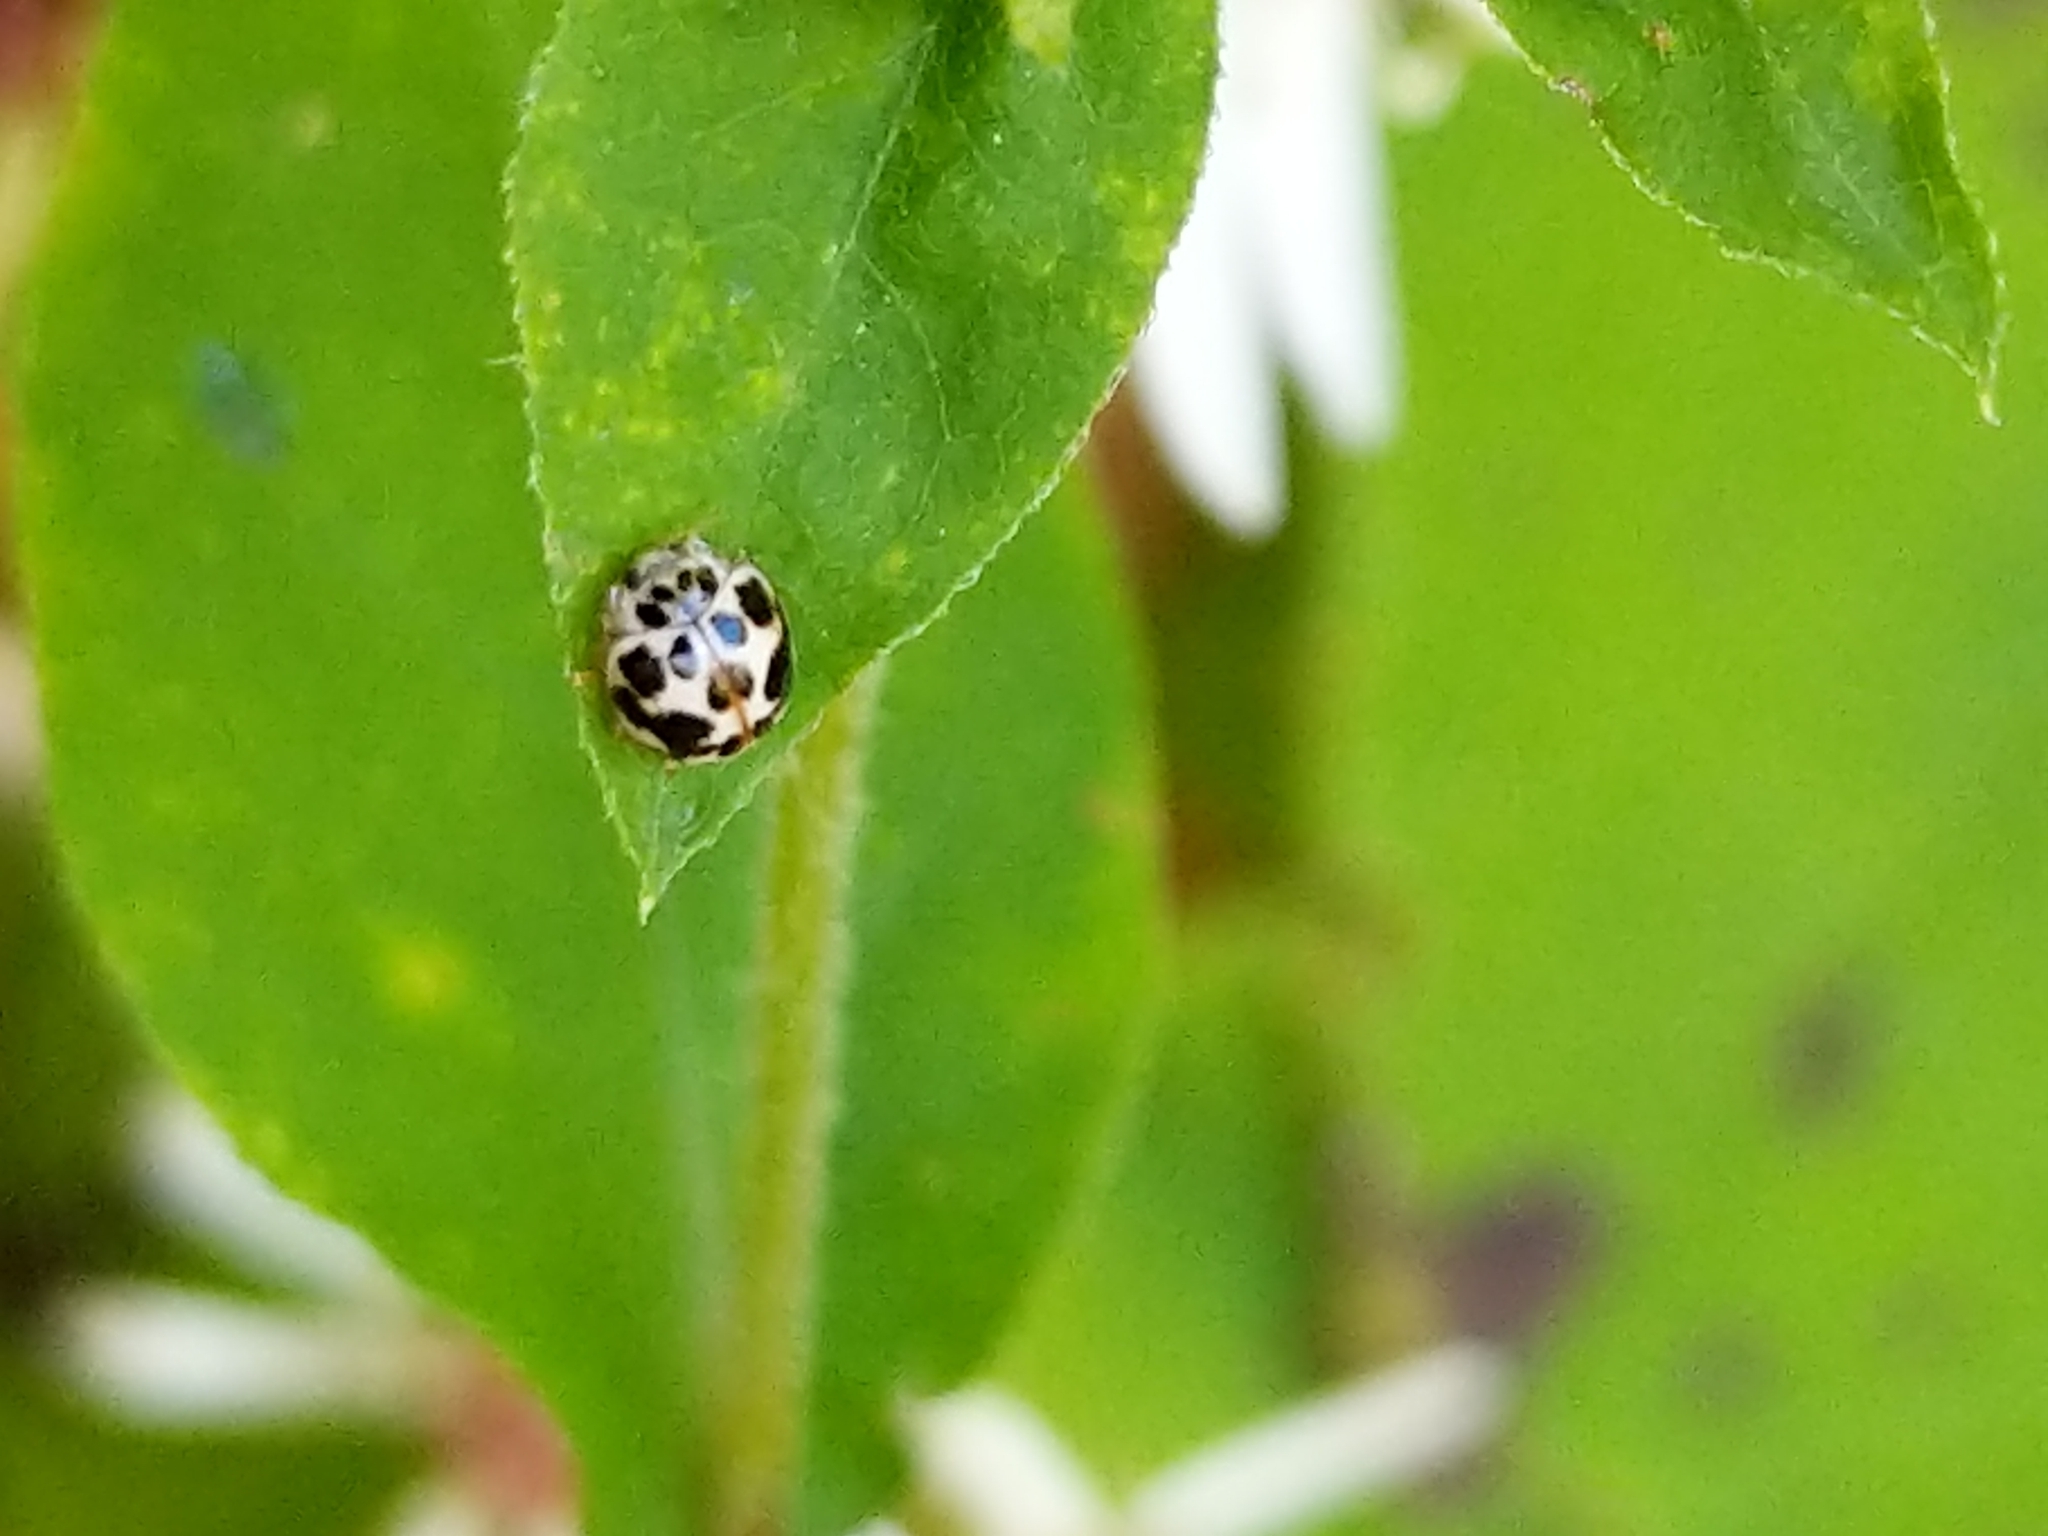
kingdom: Animalia
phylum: Arthropoda
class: Insecta
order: Coleoptera
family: Coccinellidae
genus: Psyllobora
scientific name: Psyllobora vigintimaculata
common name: Ladybird beetle
